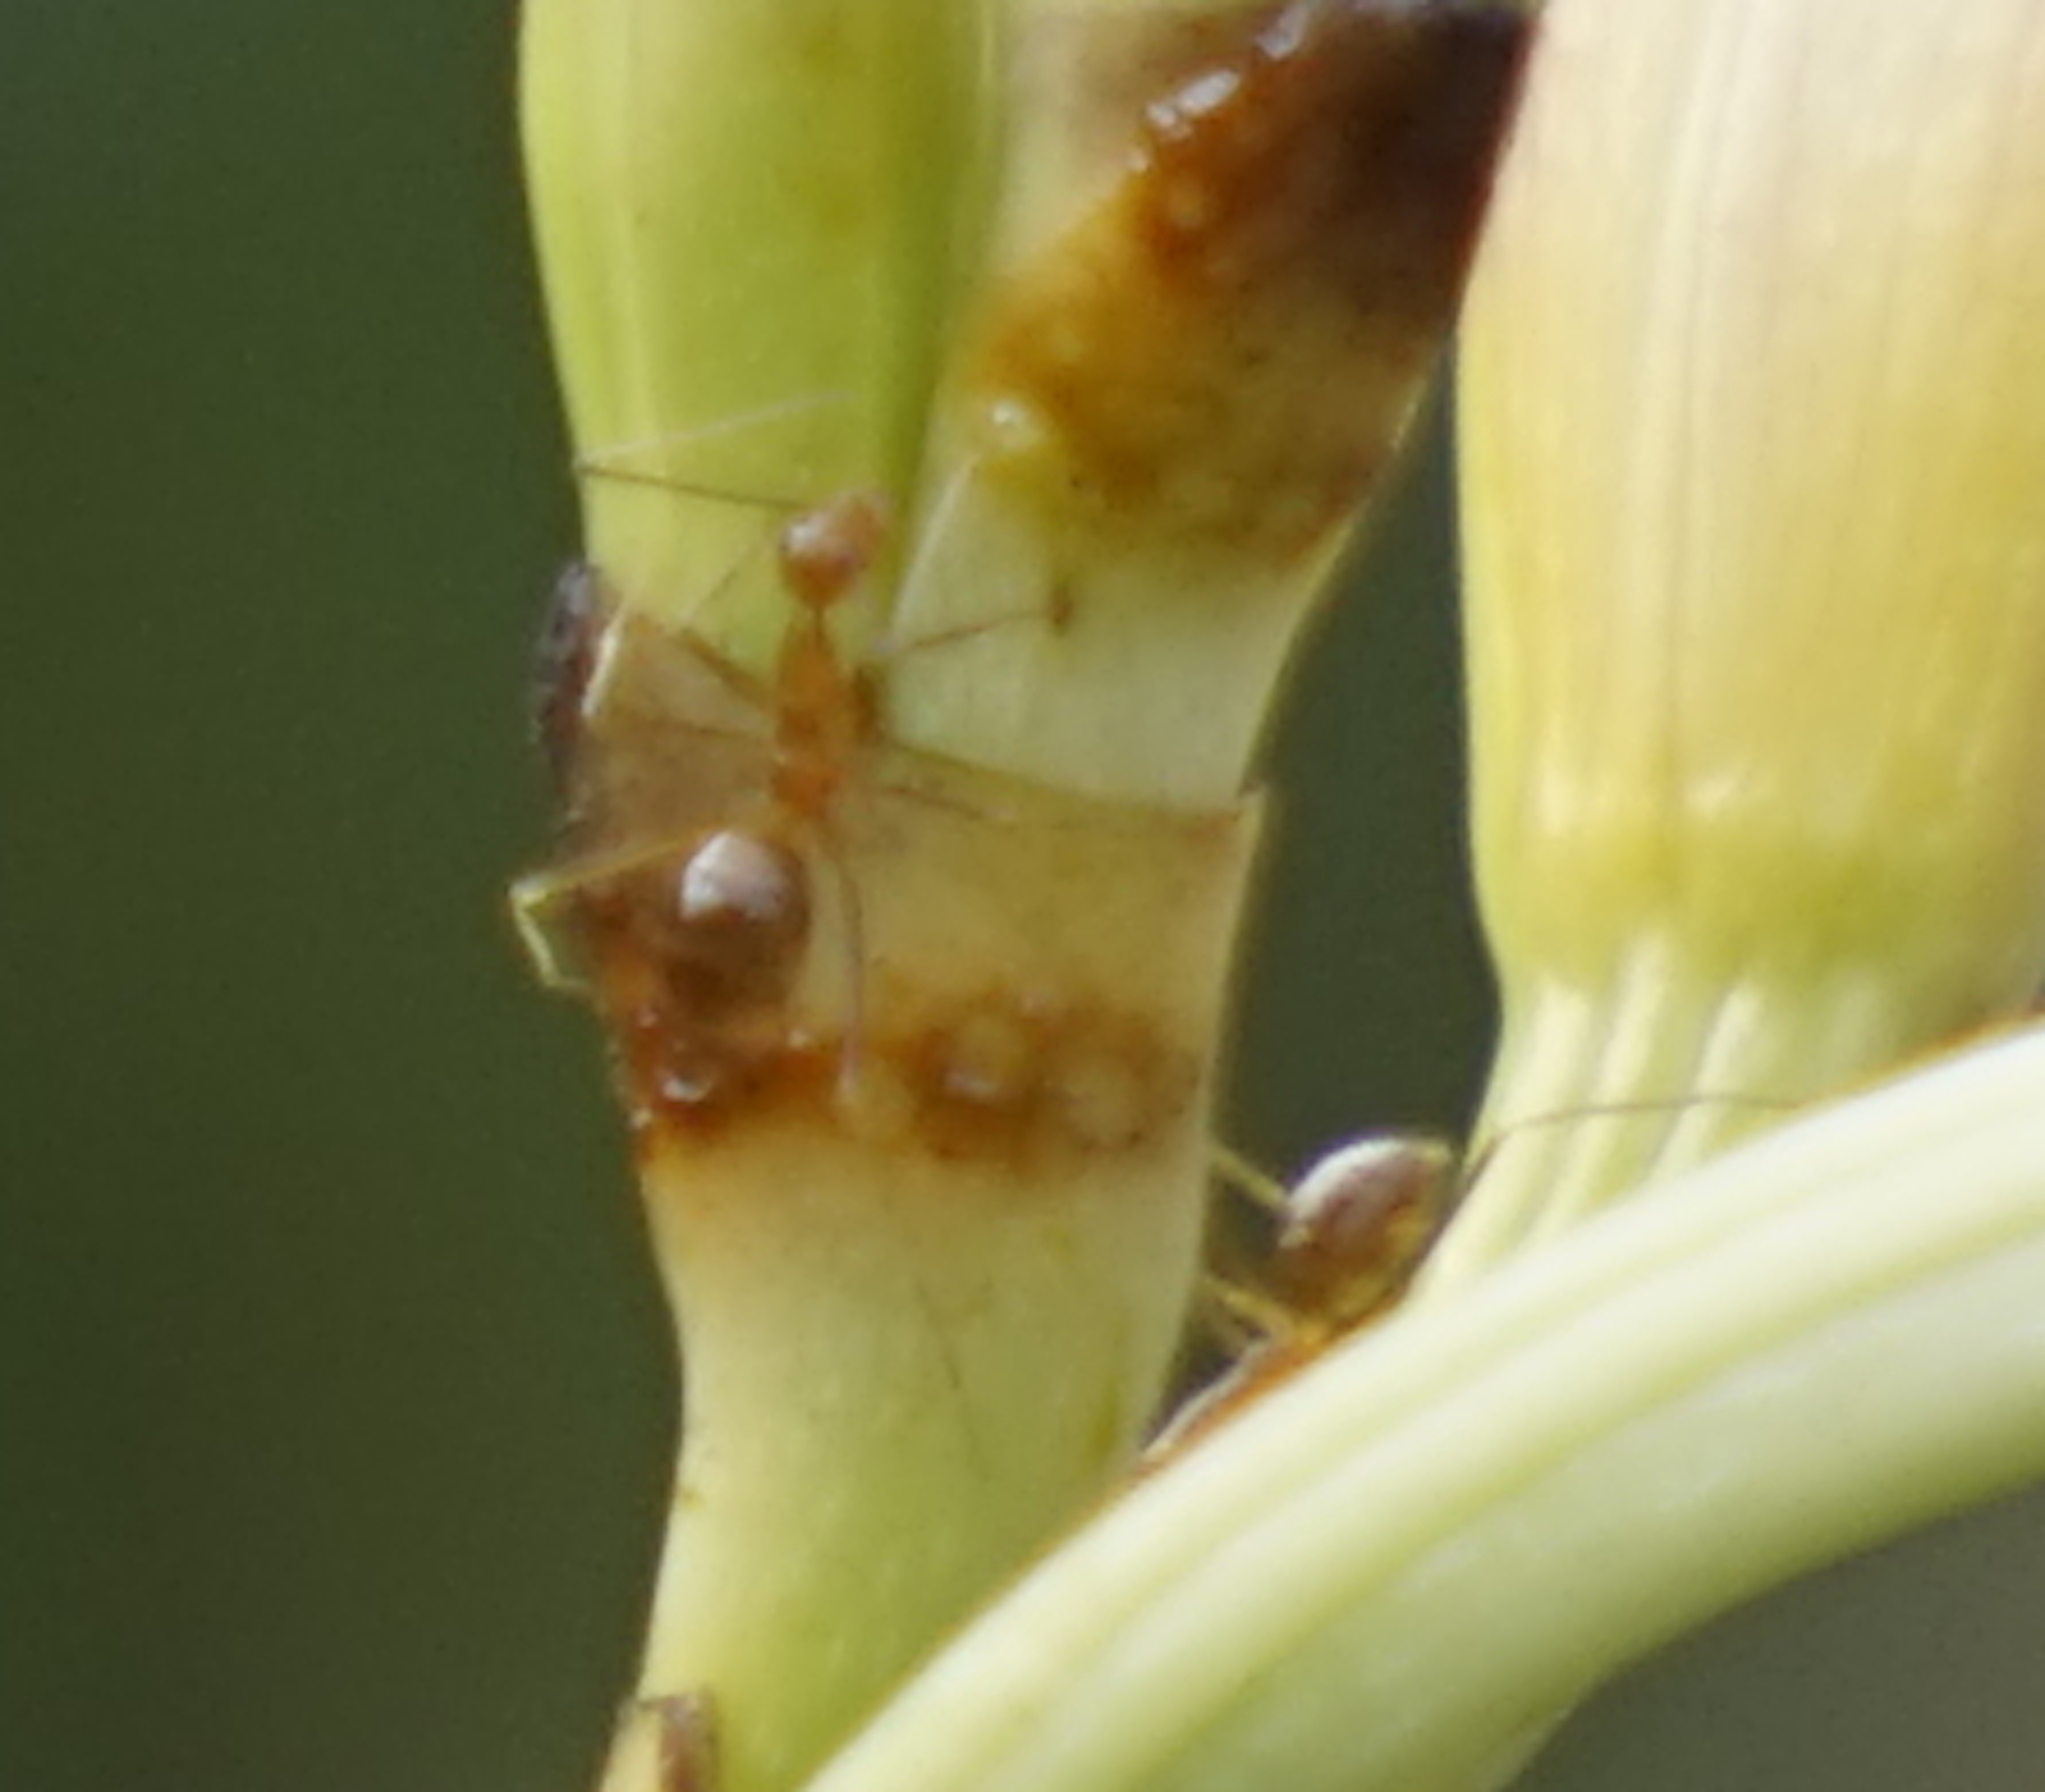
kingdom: Animalia
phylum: Arthropoda
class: Insecta
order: Hymenoptera
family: Formicidae
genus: Anoplolepis
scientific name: Anoplolepis gracilipes
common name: Ant
